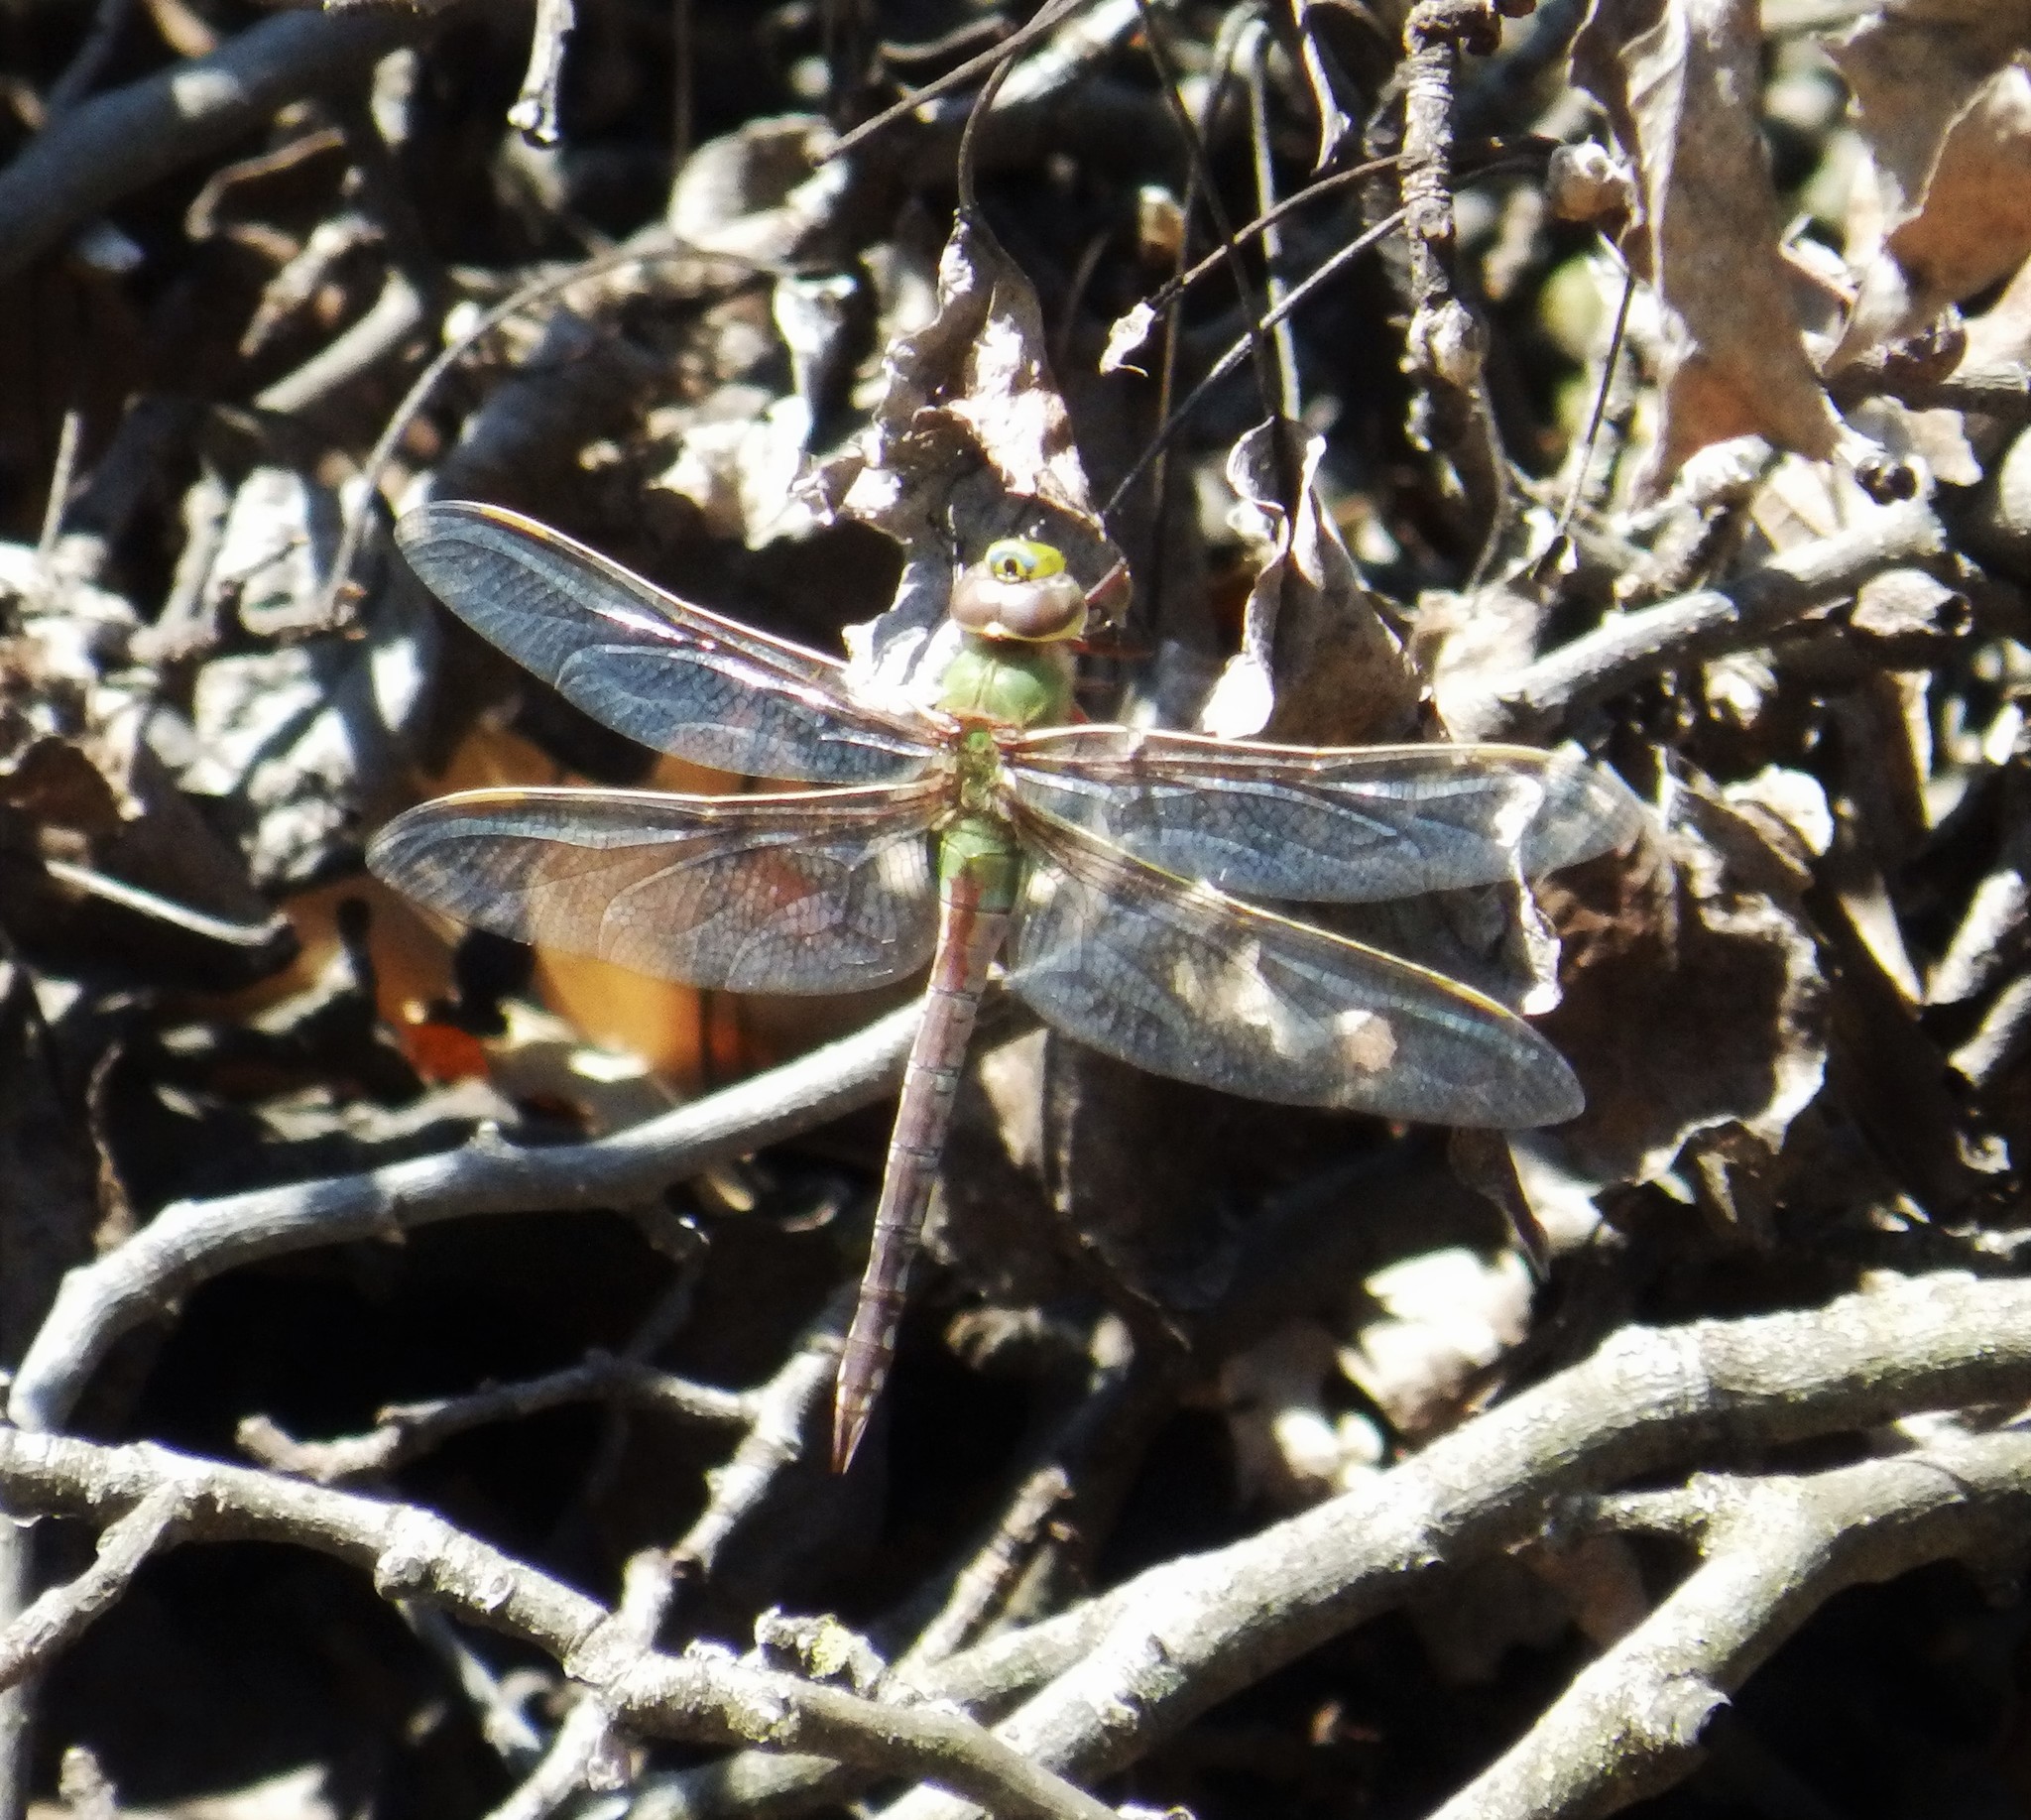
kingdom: Animalia
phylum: Arthropoda
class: Insecta
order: Odonata
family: Aeshnidae
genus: Anax
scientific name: Anax junius
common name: Common green darner
